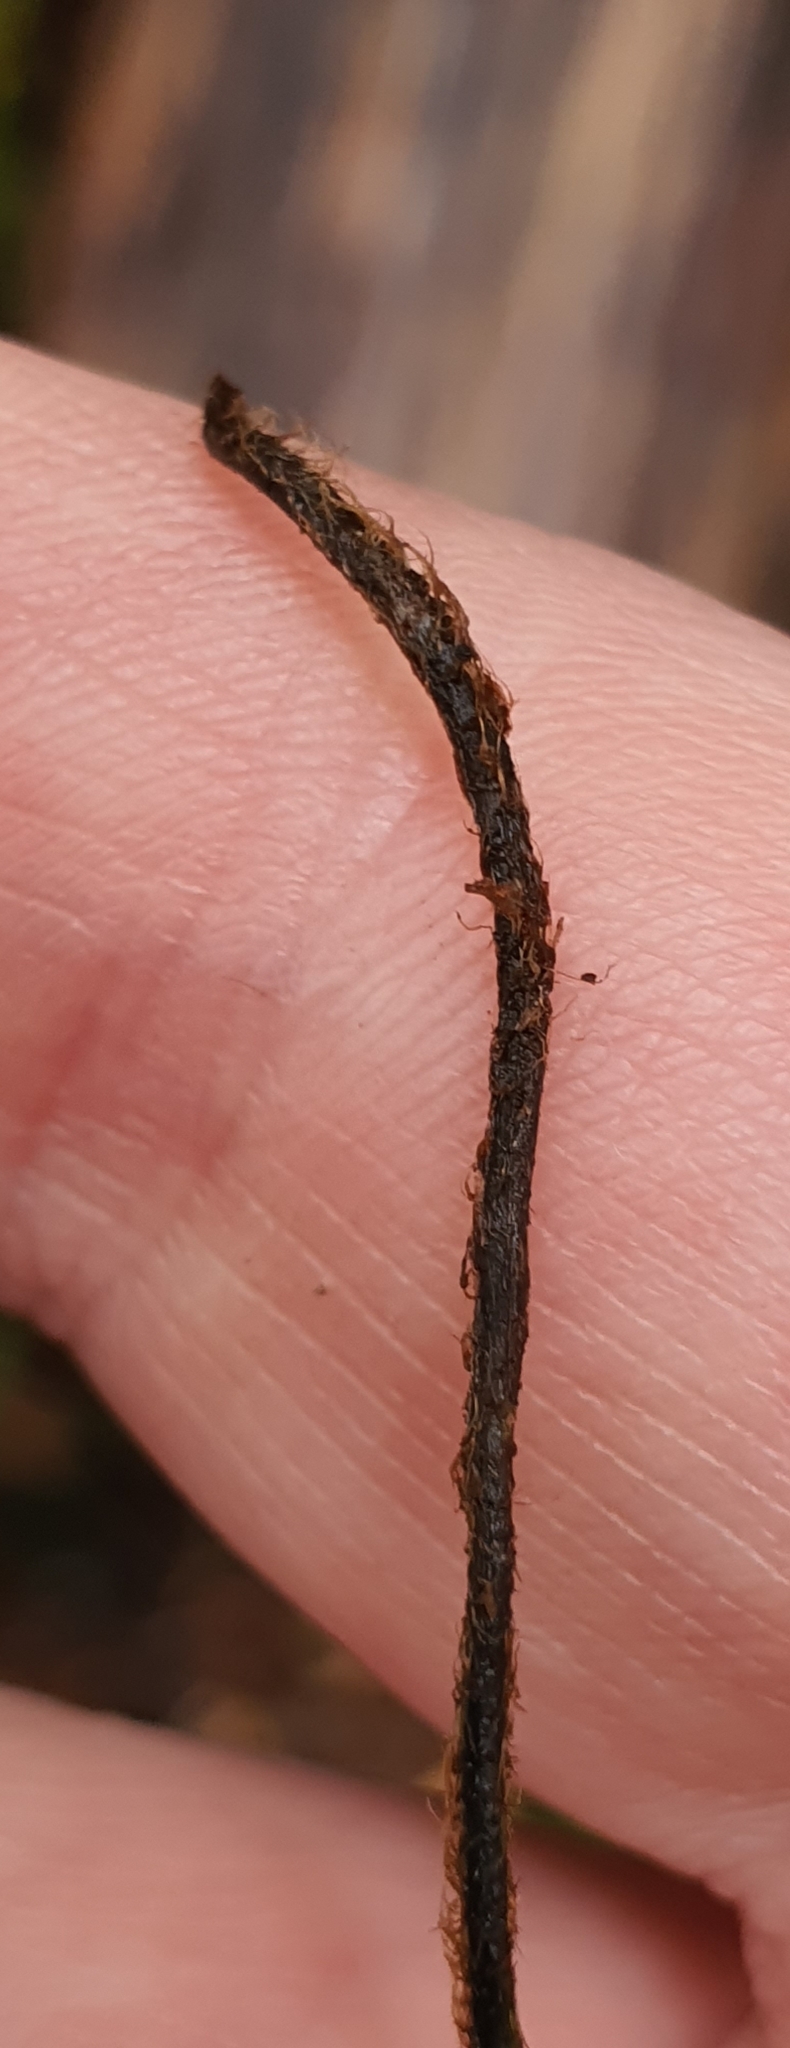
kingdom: Plantae
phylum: Tracheophyta
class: Polypodiopsida
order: Hymenophyllales
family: Hymenophyllaceae
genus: Hymenophyllum
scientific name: Hymenophyllum villosum
